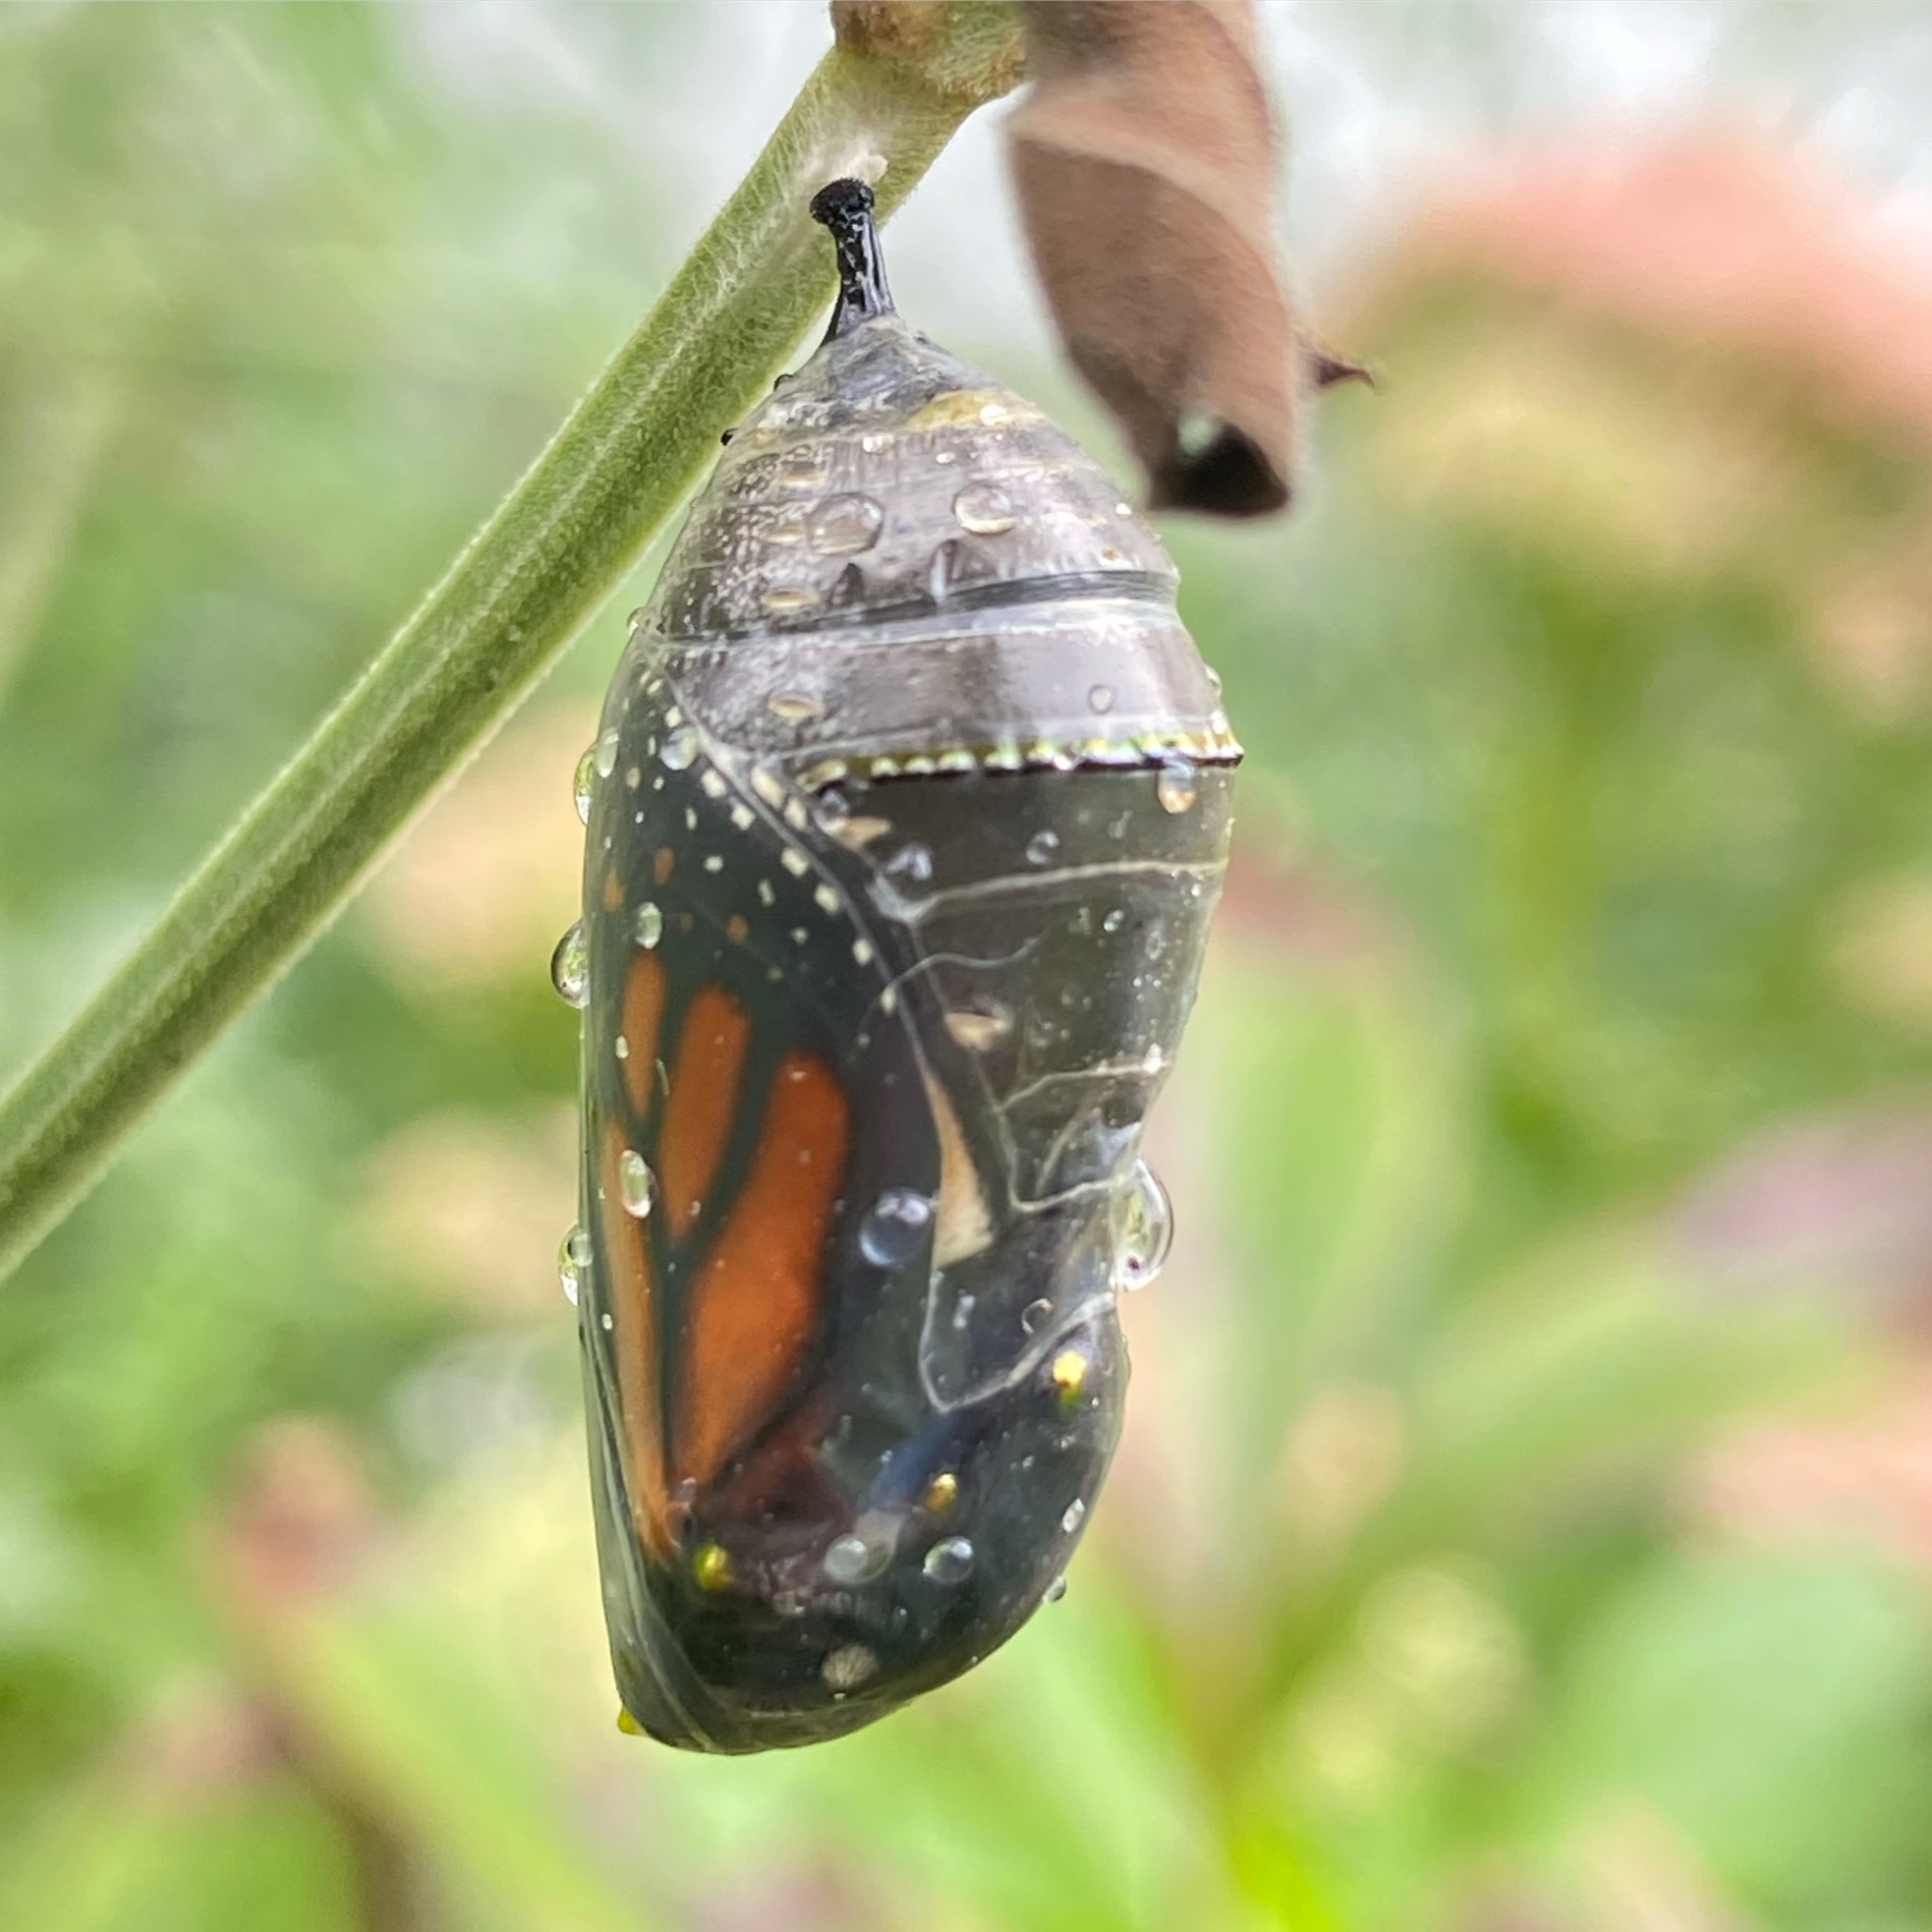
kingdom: Animalia
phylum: Arthropoda
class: Insecta
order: Lepidoptera
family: Nymphalidae
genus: Danaus
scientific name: Danaus plexippus
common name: Monarch
